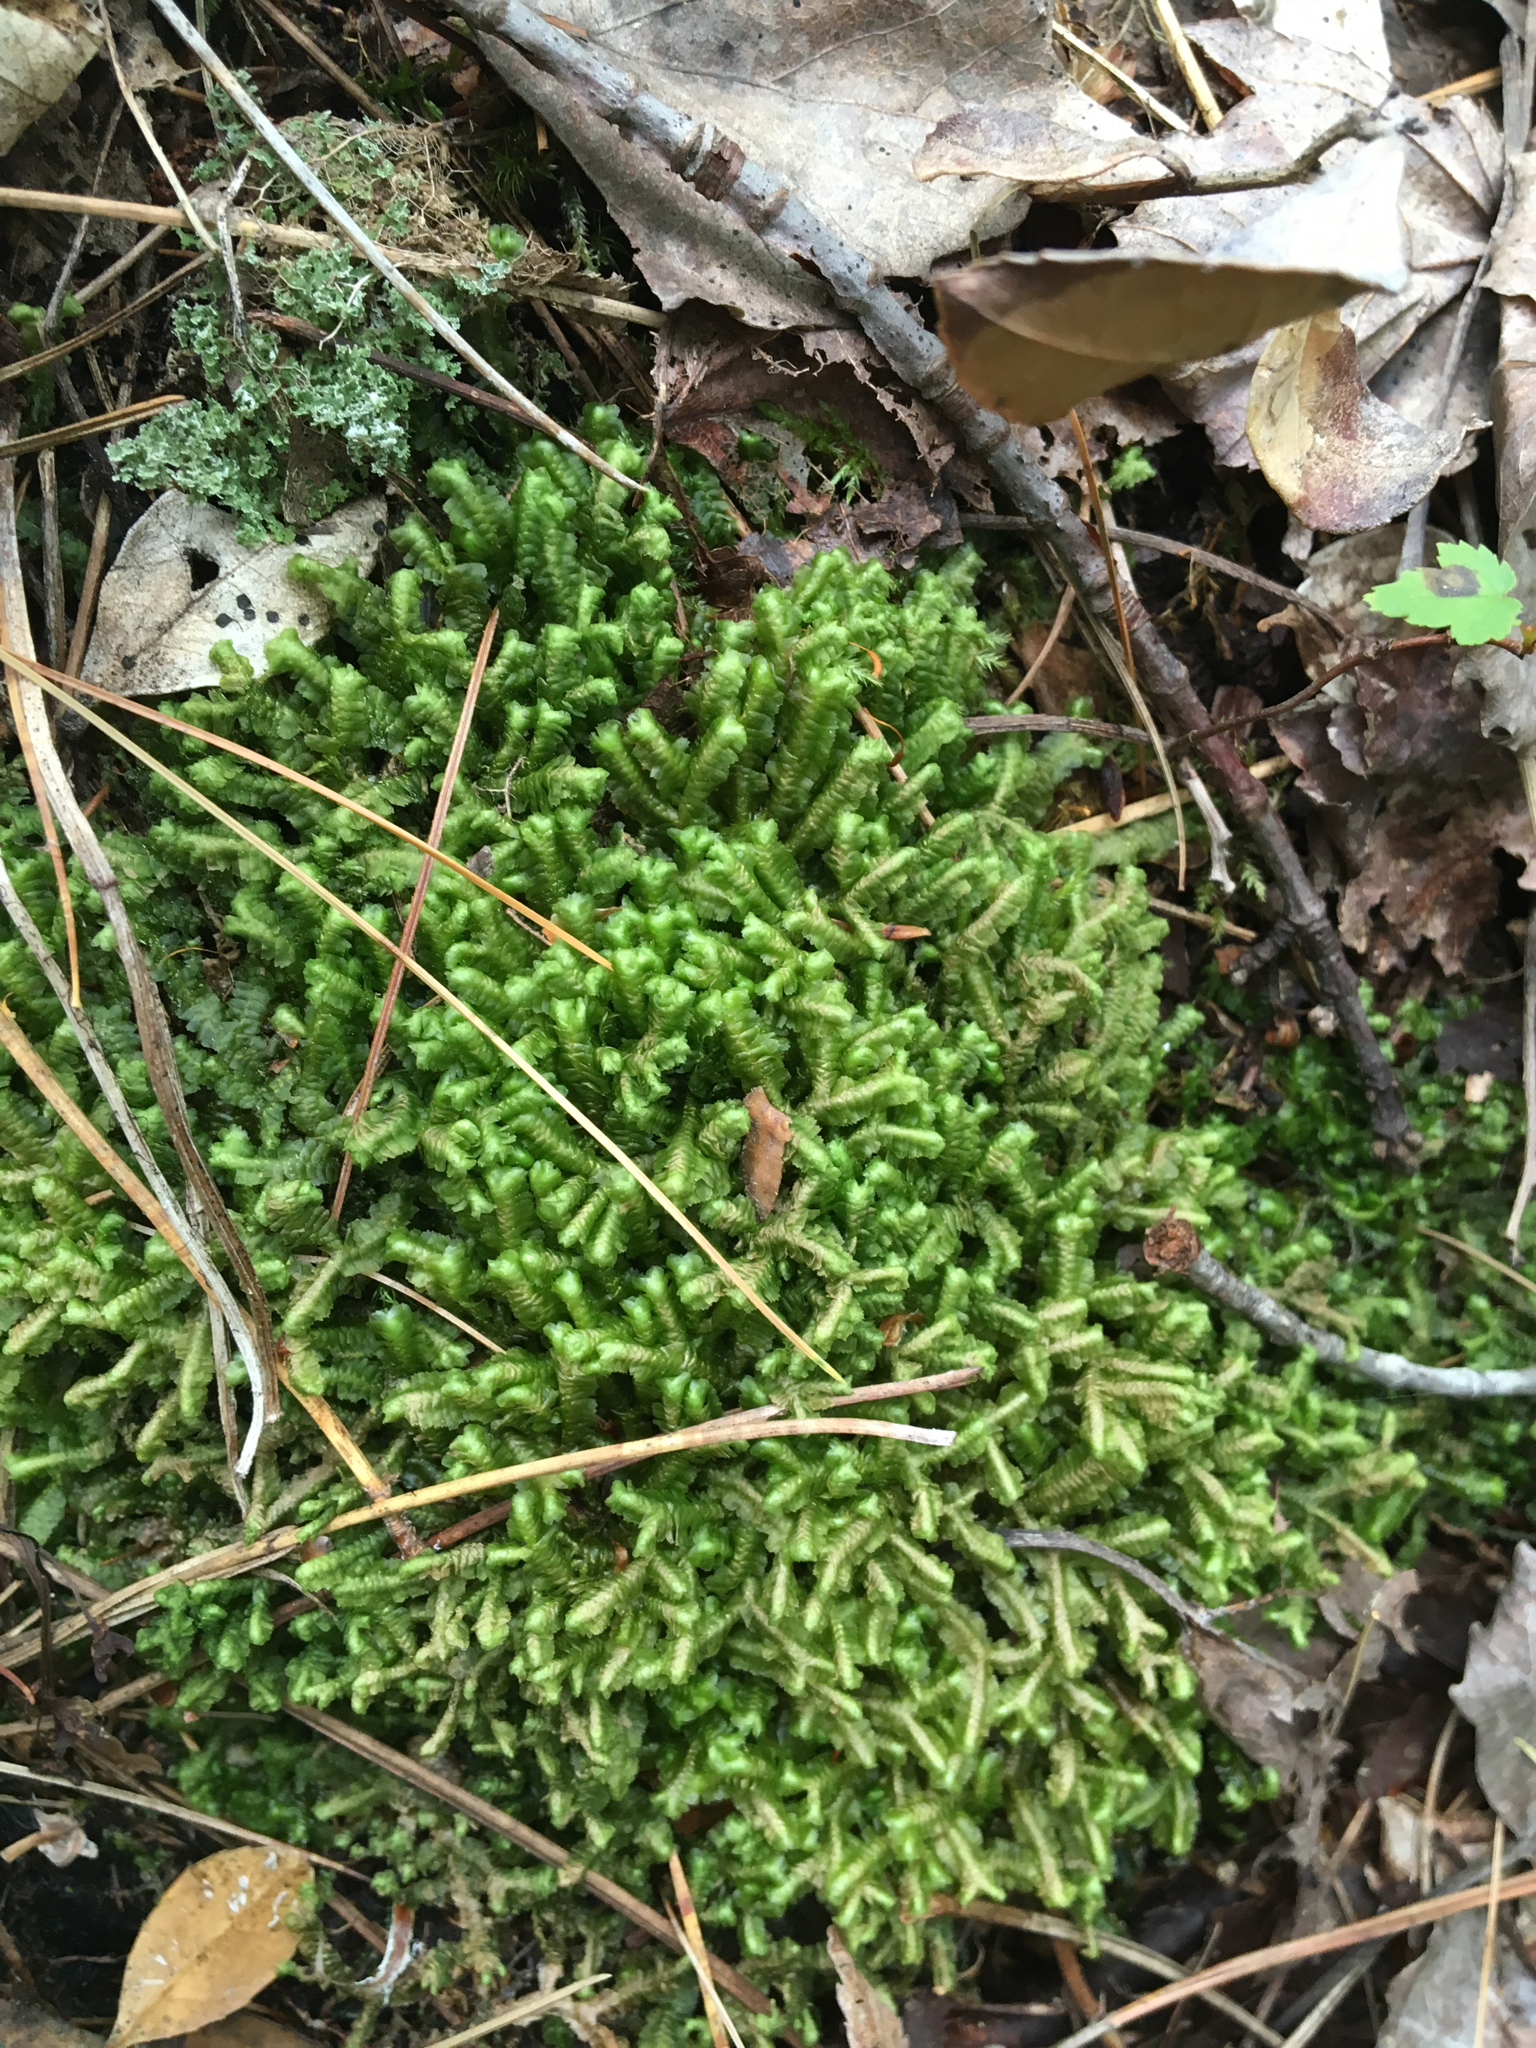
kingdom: Plantae
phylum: Marchantiophyta
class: Jungermanniopsida
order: Jungermanniales
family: Lepidoziaceae
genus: Bazzania
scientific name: Bazzania trilobata
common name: Three-lobed whipwort
